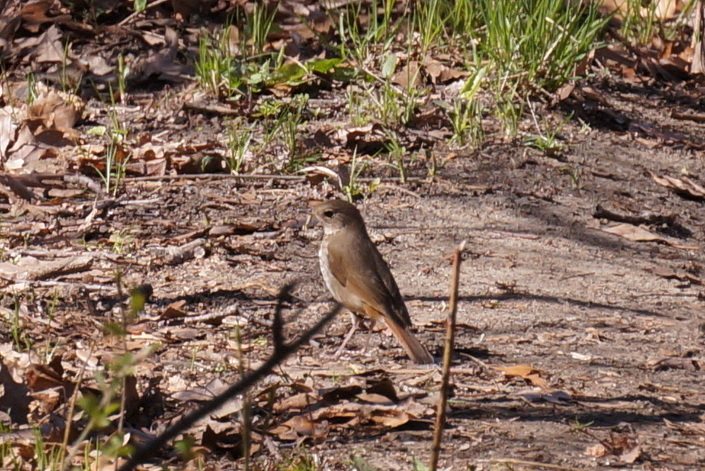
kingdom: Animalia
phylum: Chordata
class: Aves
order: Passeriformes
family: Turdidae
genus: Catharus
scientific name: Catharus guttatus
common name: Hermit thrush
